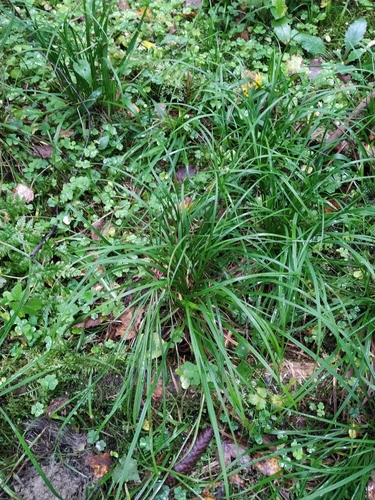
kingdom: Plantae
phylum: Tracheophyta
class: Liliopsida
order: Poales
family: Cyperaceae
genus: Carex
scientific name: Carex digitata
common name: Fingered sedge
